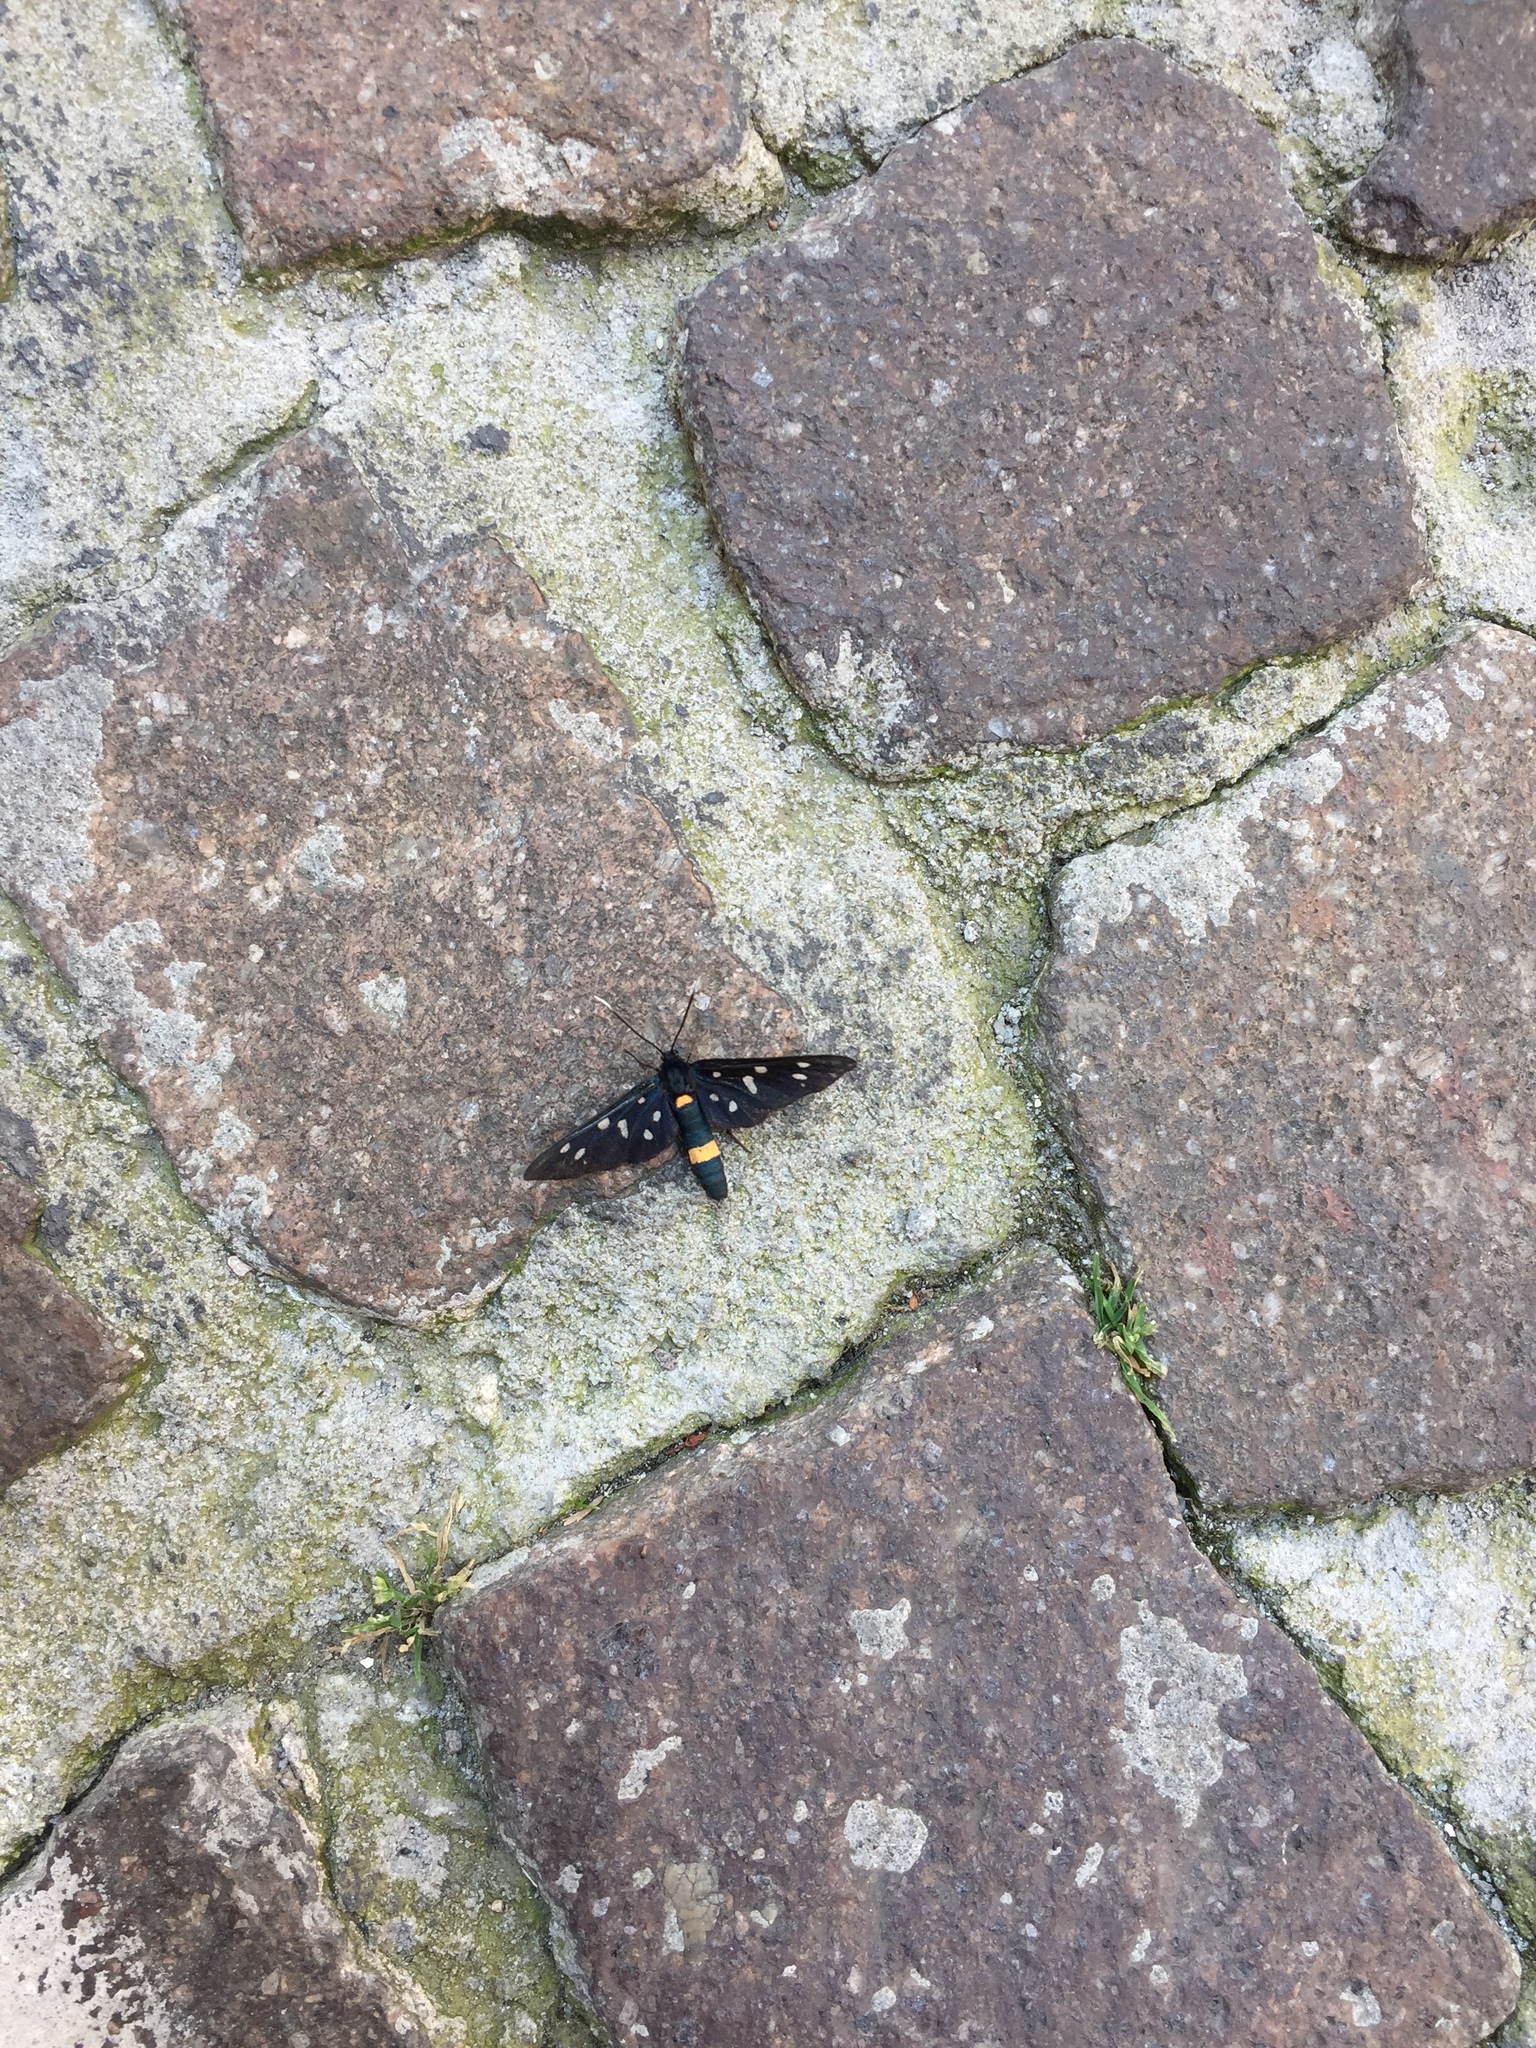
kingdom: Animalia
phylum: Arthropoda
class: Insecta
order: Lepidoptera
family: Erebidae
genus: Amata
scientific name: Amata phegea
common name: Nine-spotted
